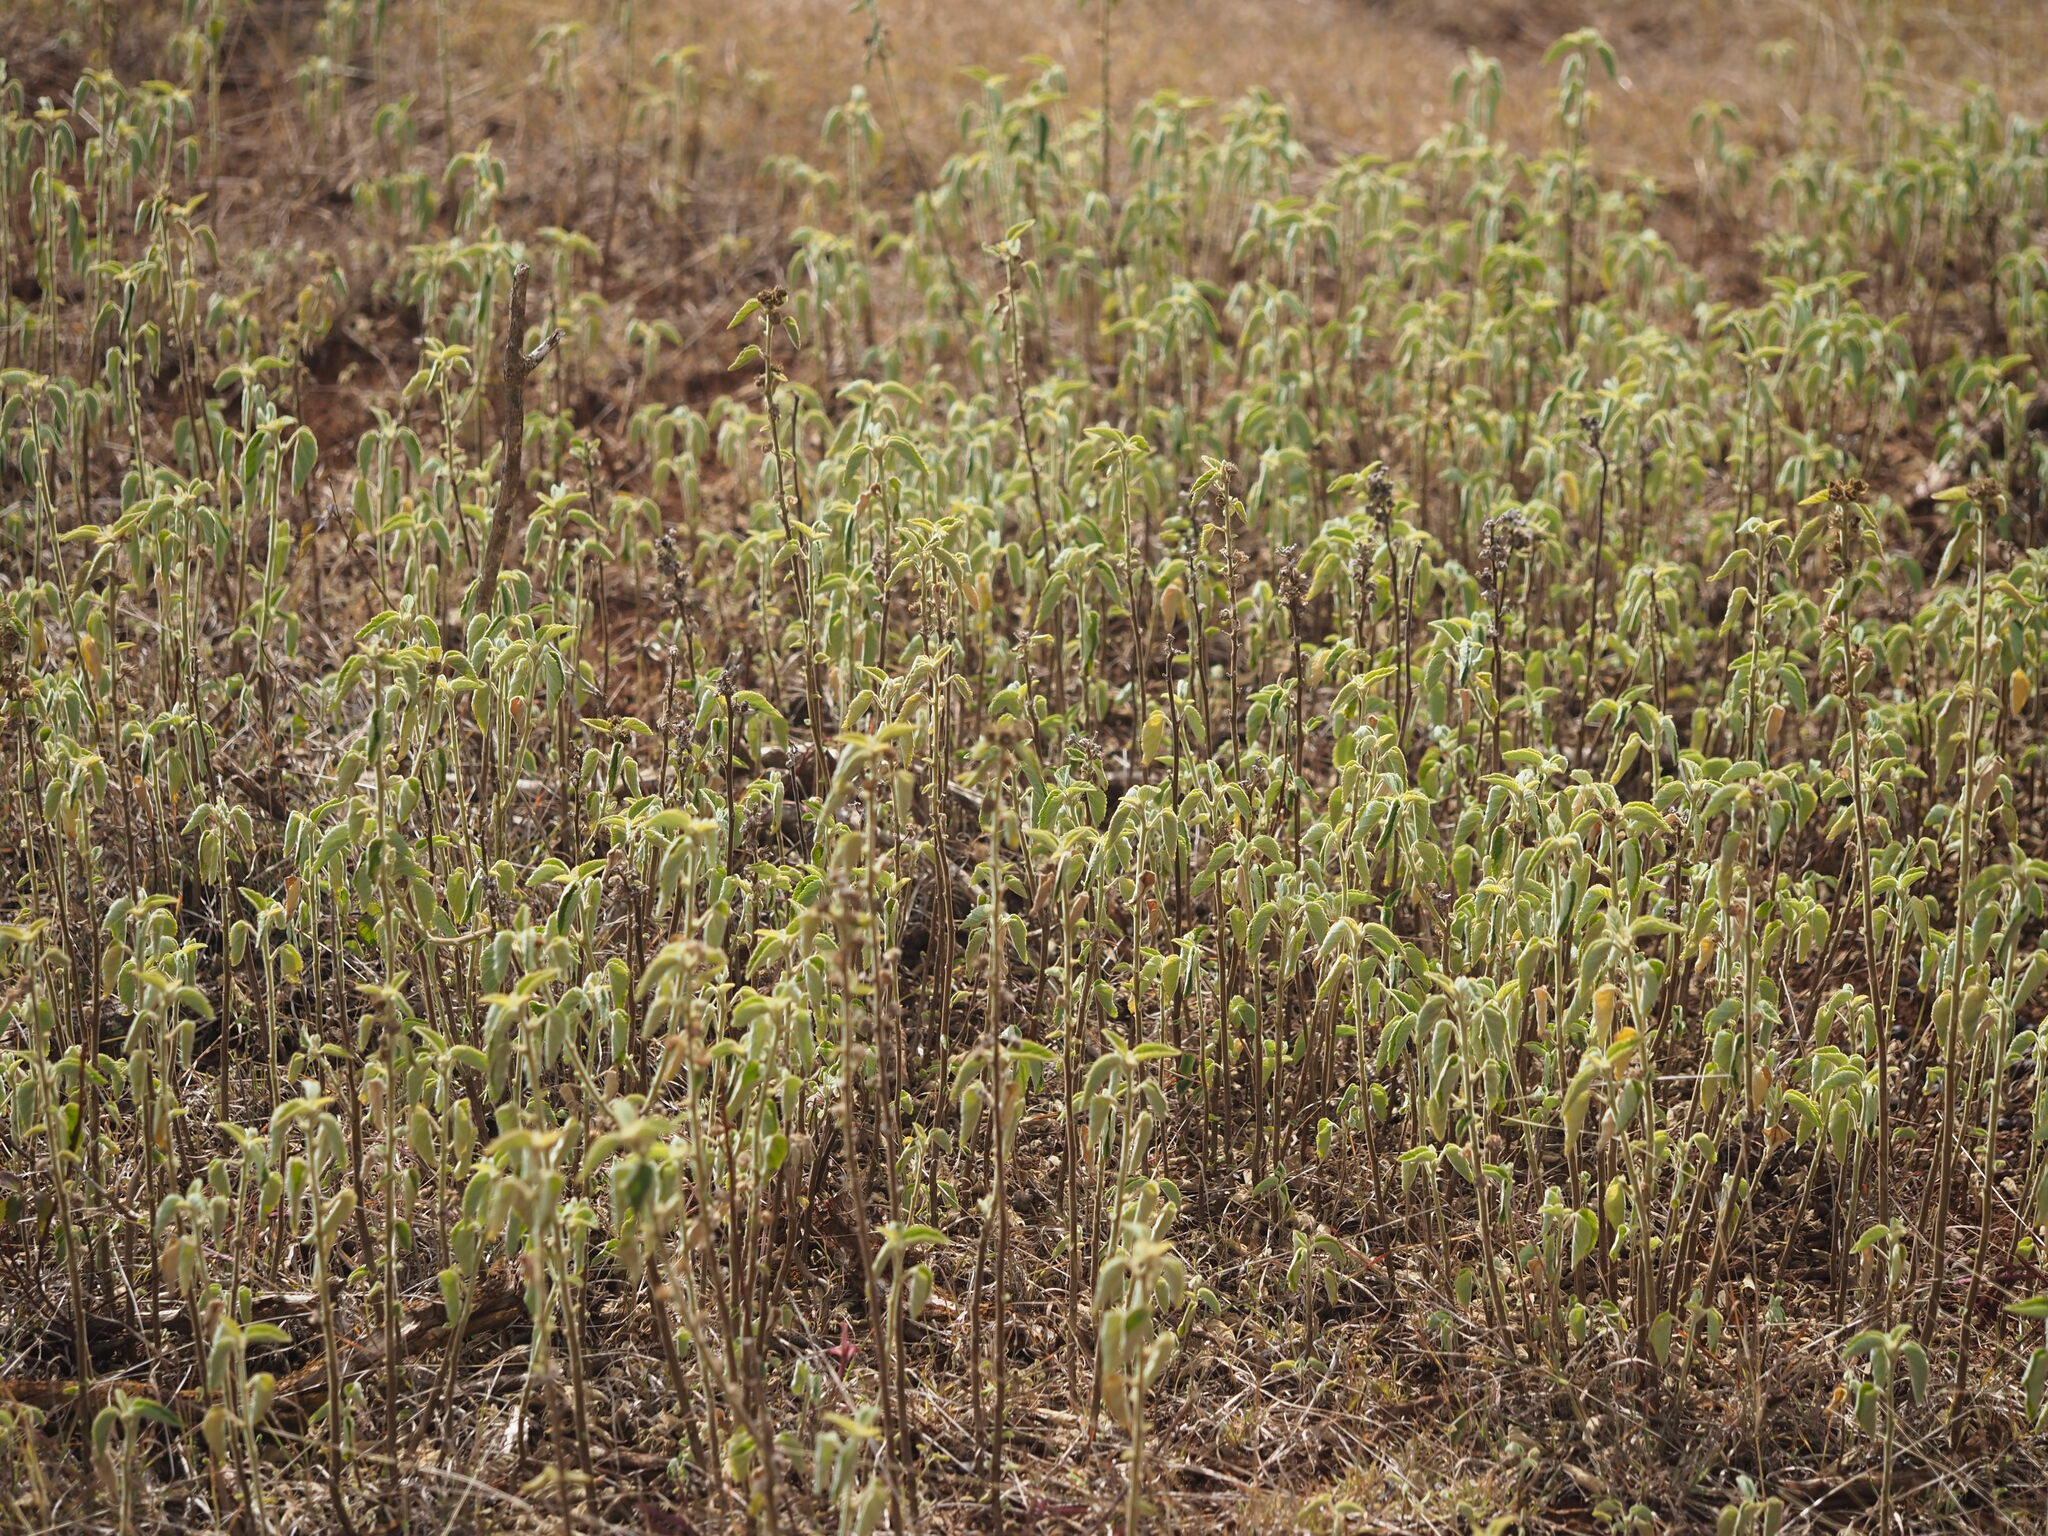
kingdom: Plantae
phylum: Tracheophyta
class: Magnoliopsida
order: Malvales
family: Malvaceae
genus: Sida
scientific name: Sida cordifolia
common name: Ilima
